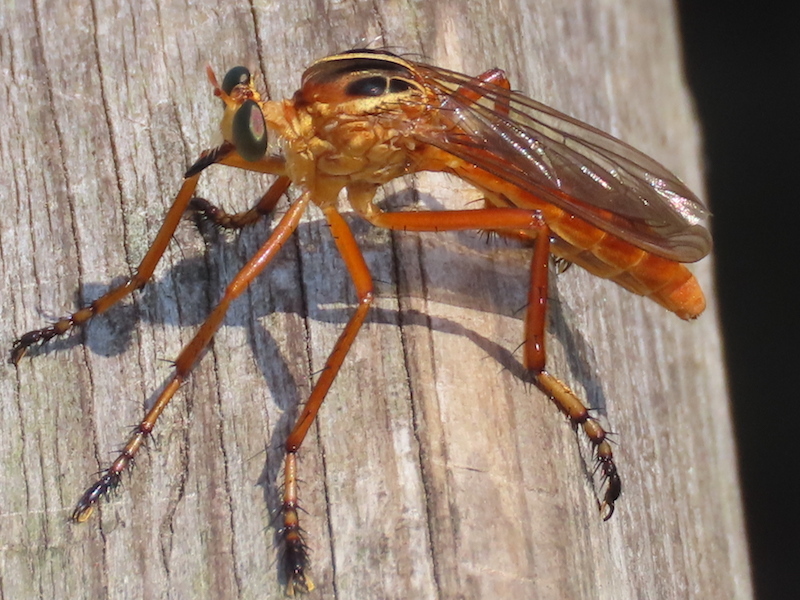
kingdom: Animalia
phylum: Arthropoda
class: Insecta
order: Diptera
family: Asilidae
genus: Diogmites
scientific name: Diogmites neoternatus
